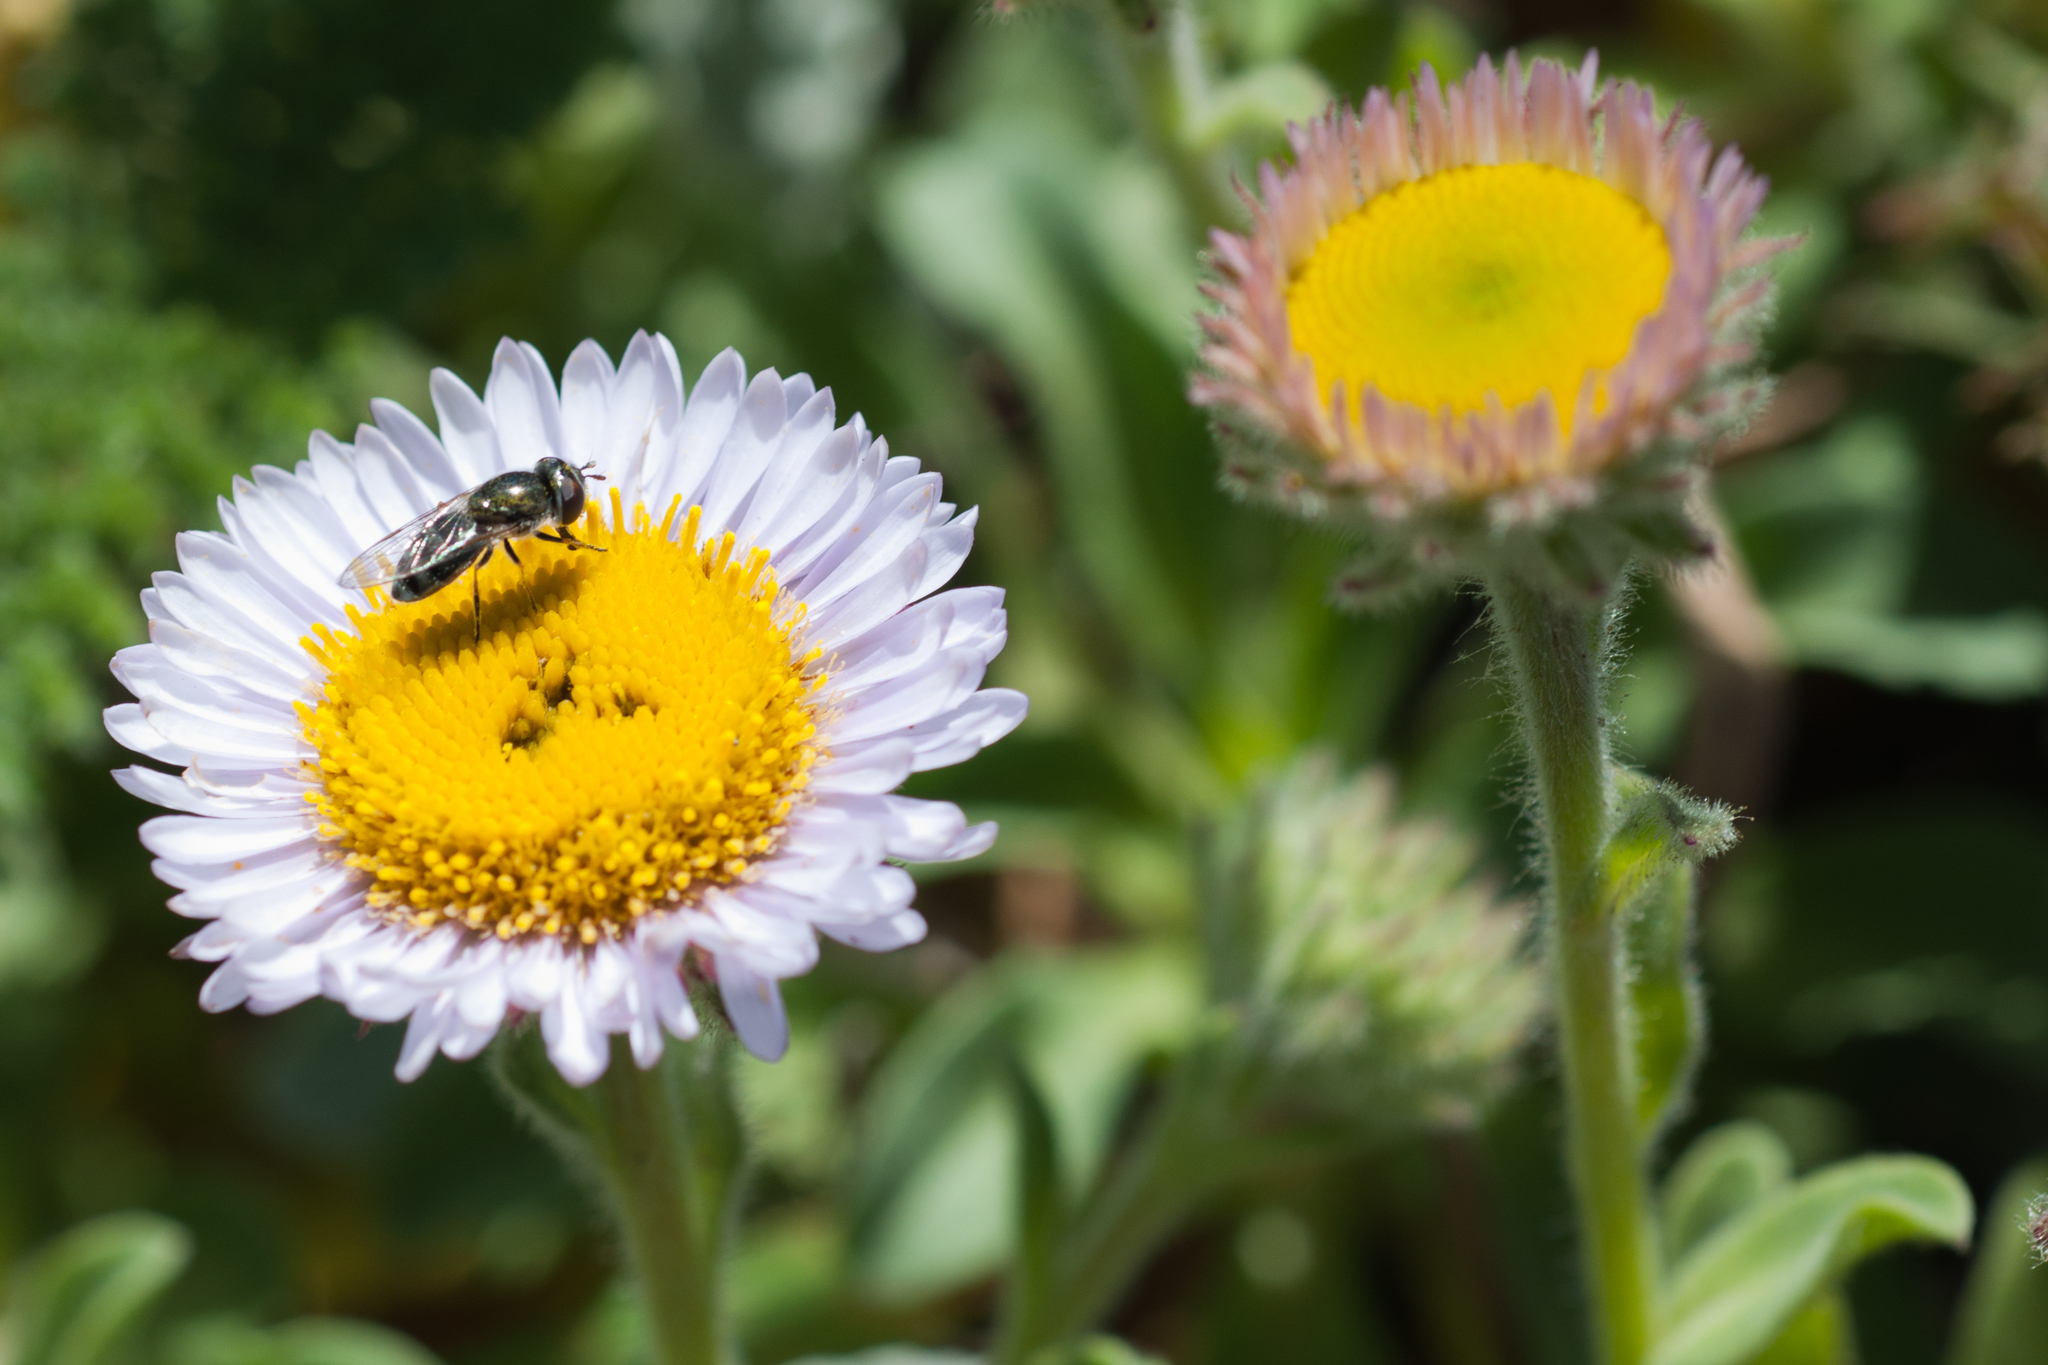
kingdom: Plantae
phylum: Tracheophyta
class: Magnoliopsida
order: Asterales
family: Asteraceae
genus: Erigeron
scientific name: Erigeron glaucus
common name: Seaside daisy
